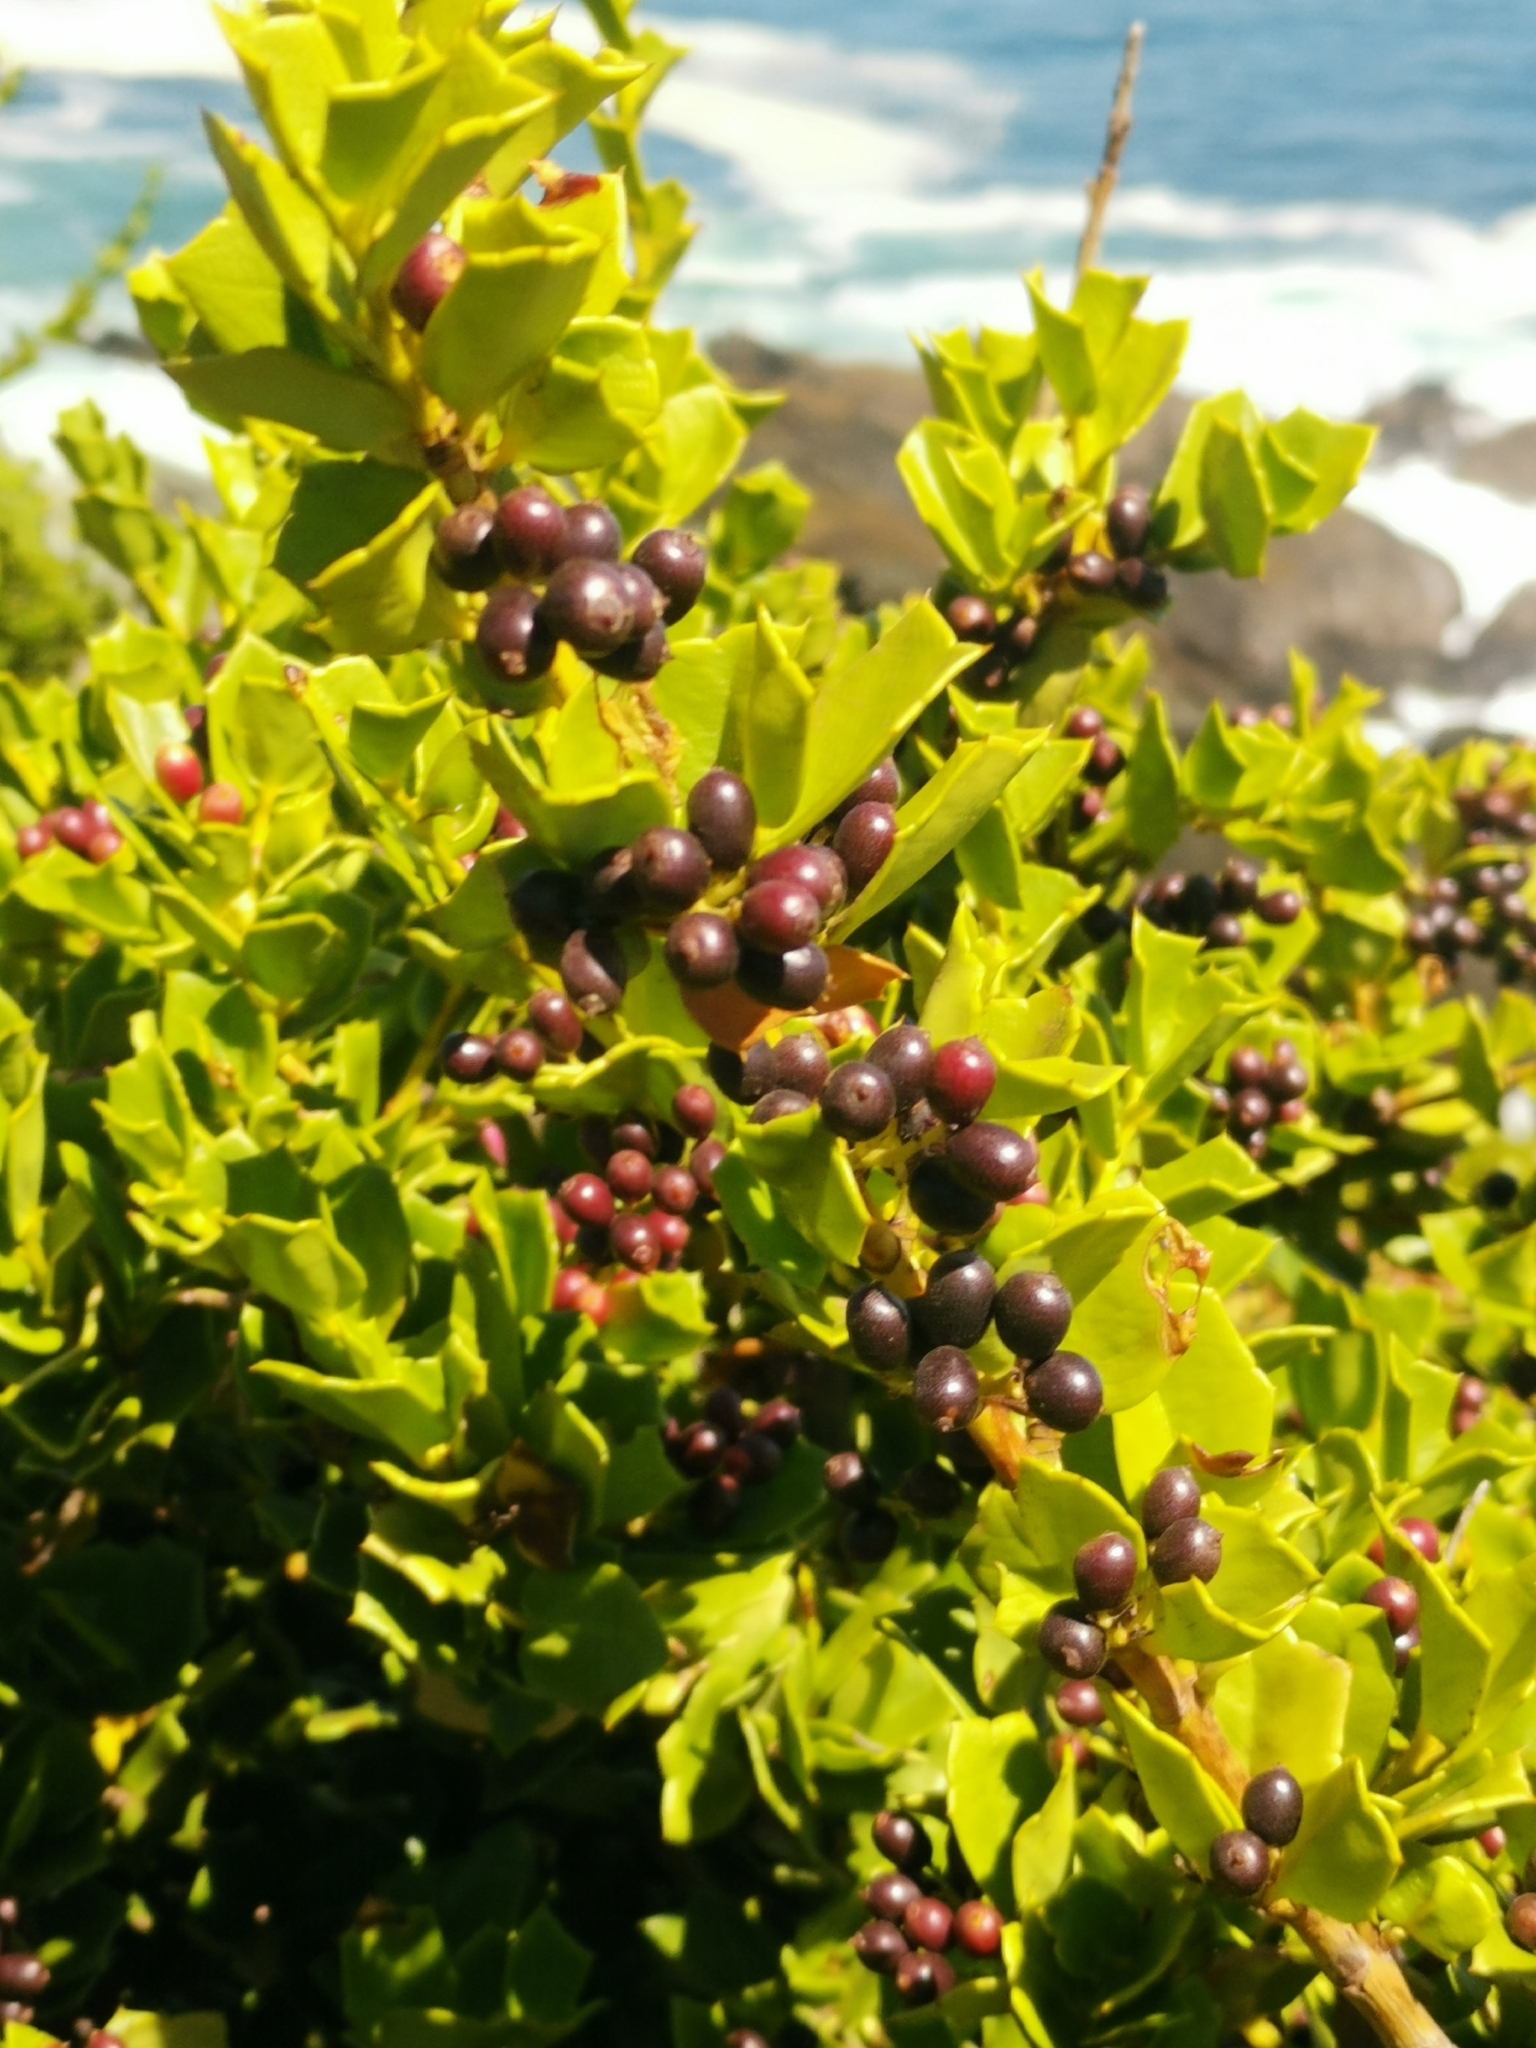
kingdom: Plantae
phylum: Tracheophyta
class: Magnoliopsida
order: Apiales
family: Griseliniaceae
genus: Griselinia
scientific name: Griselinia jodinifolia
